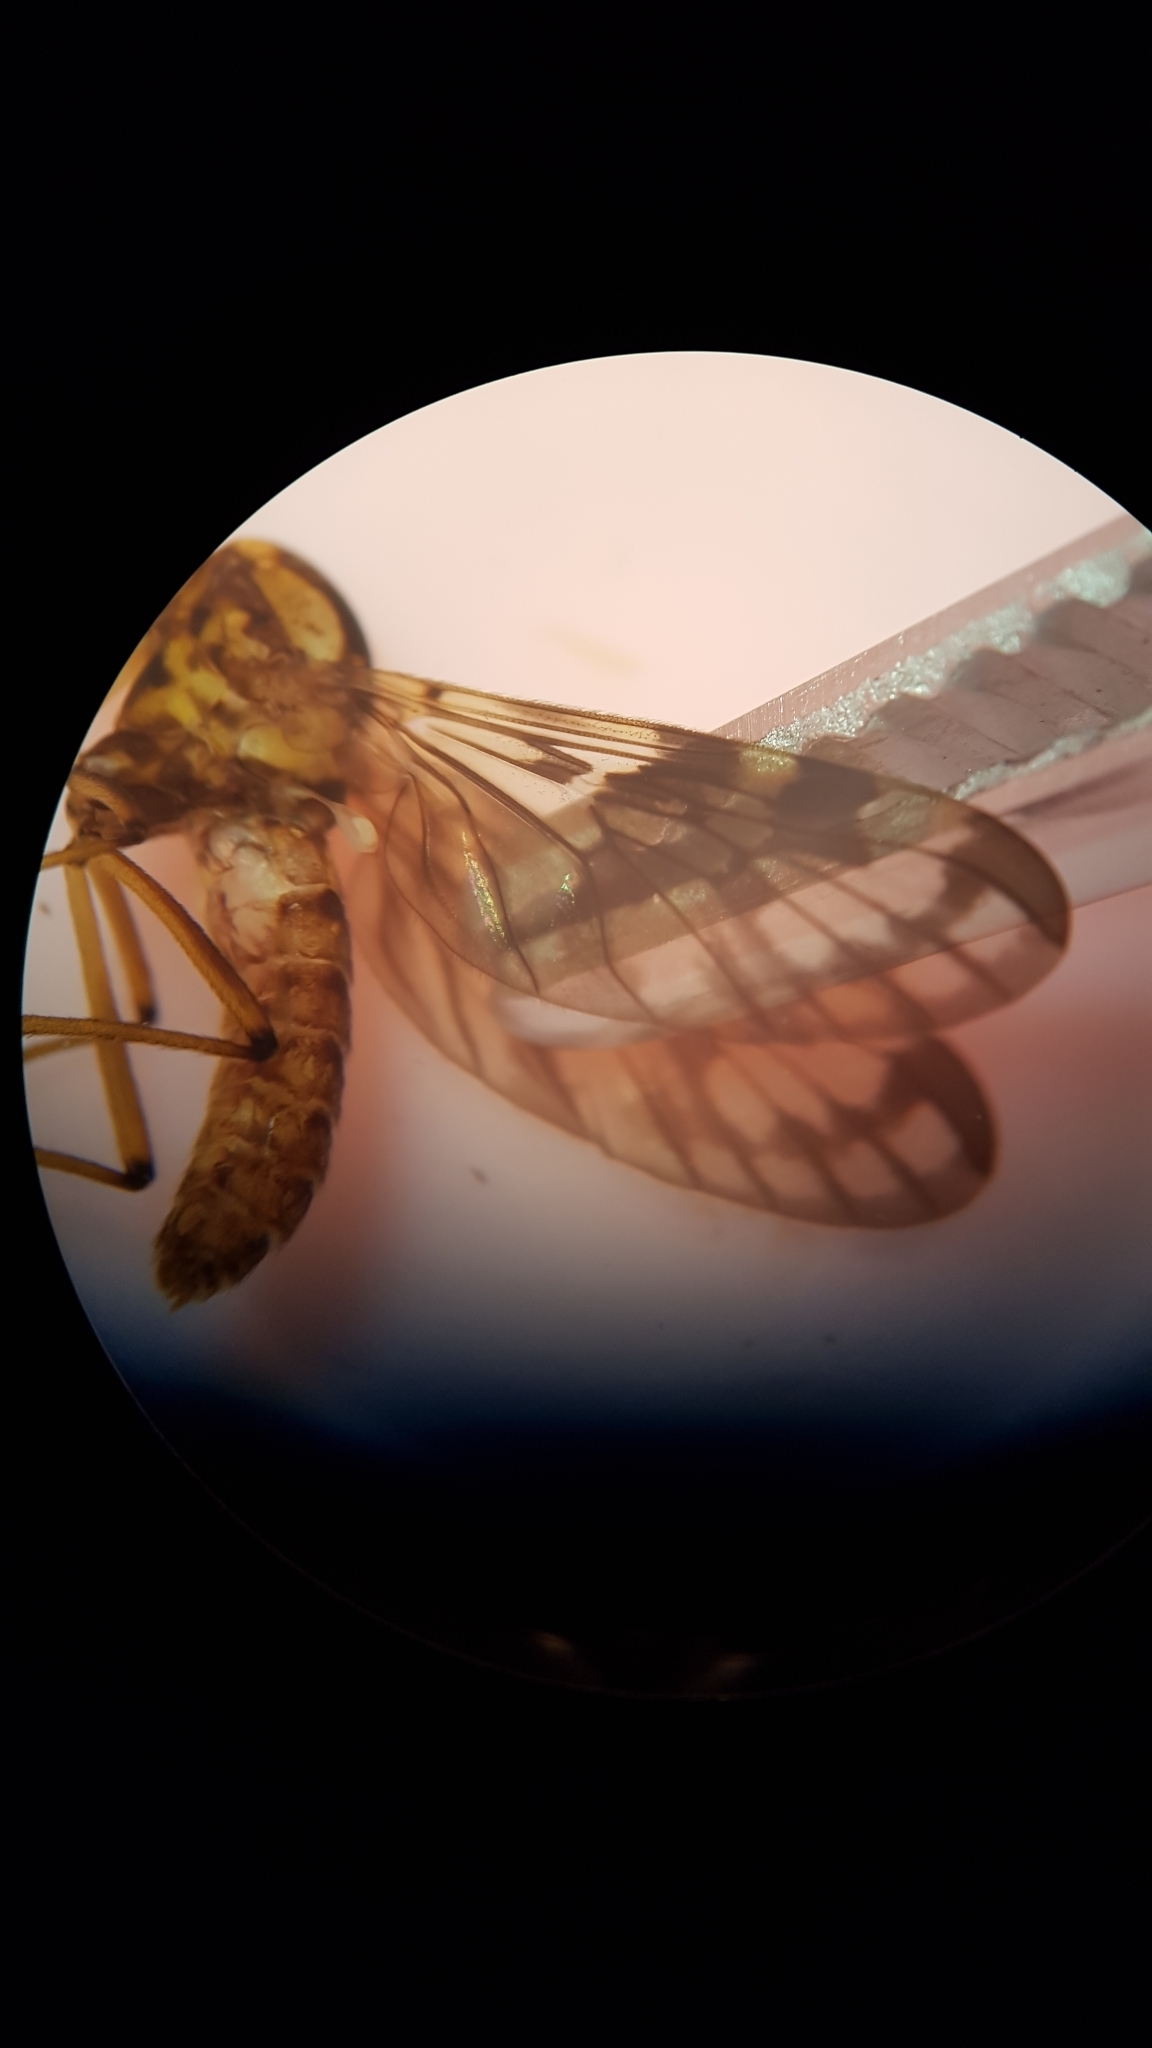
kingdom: Animalia
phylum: Arthropoda
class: Insecta
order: Diptera
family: Anisopodidae
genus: Sylvicola
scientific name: Sylvicola dubius
